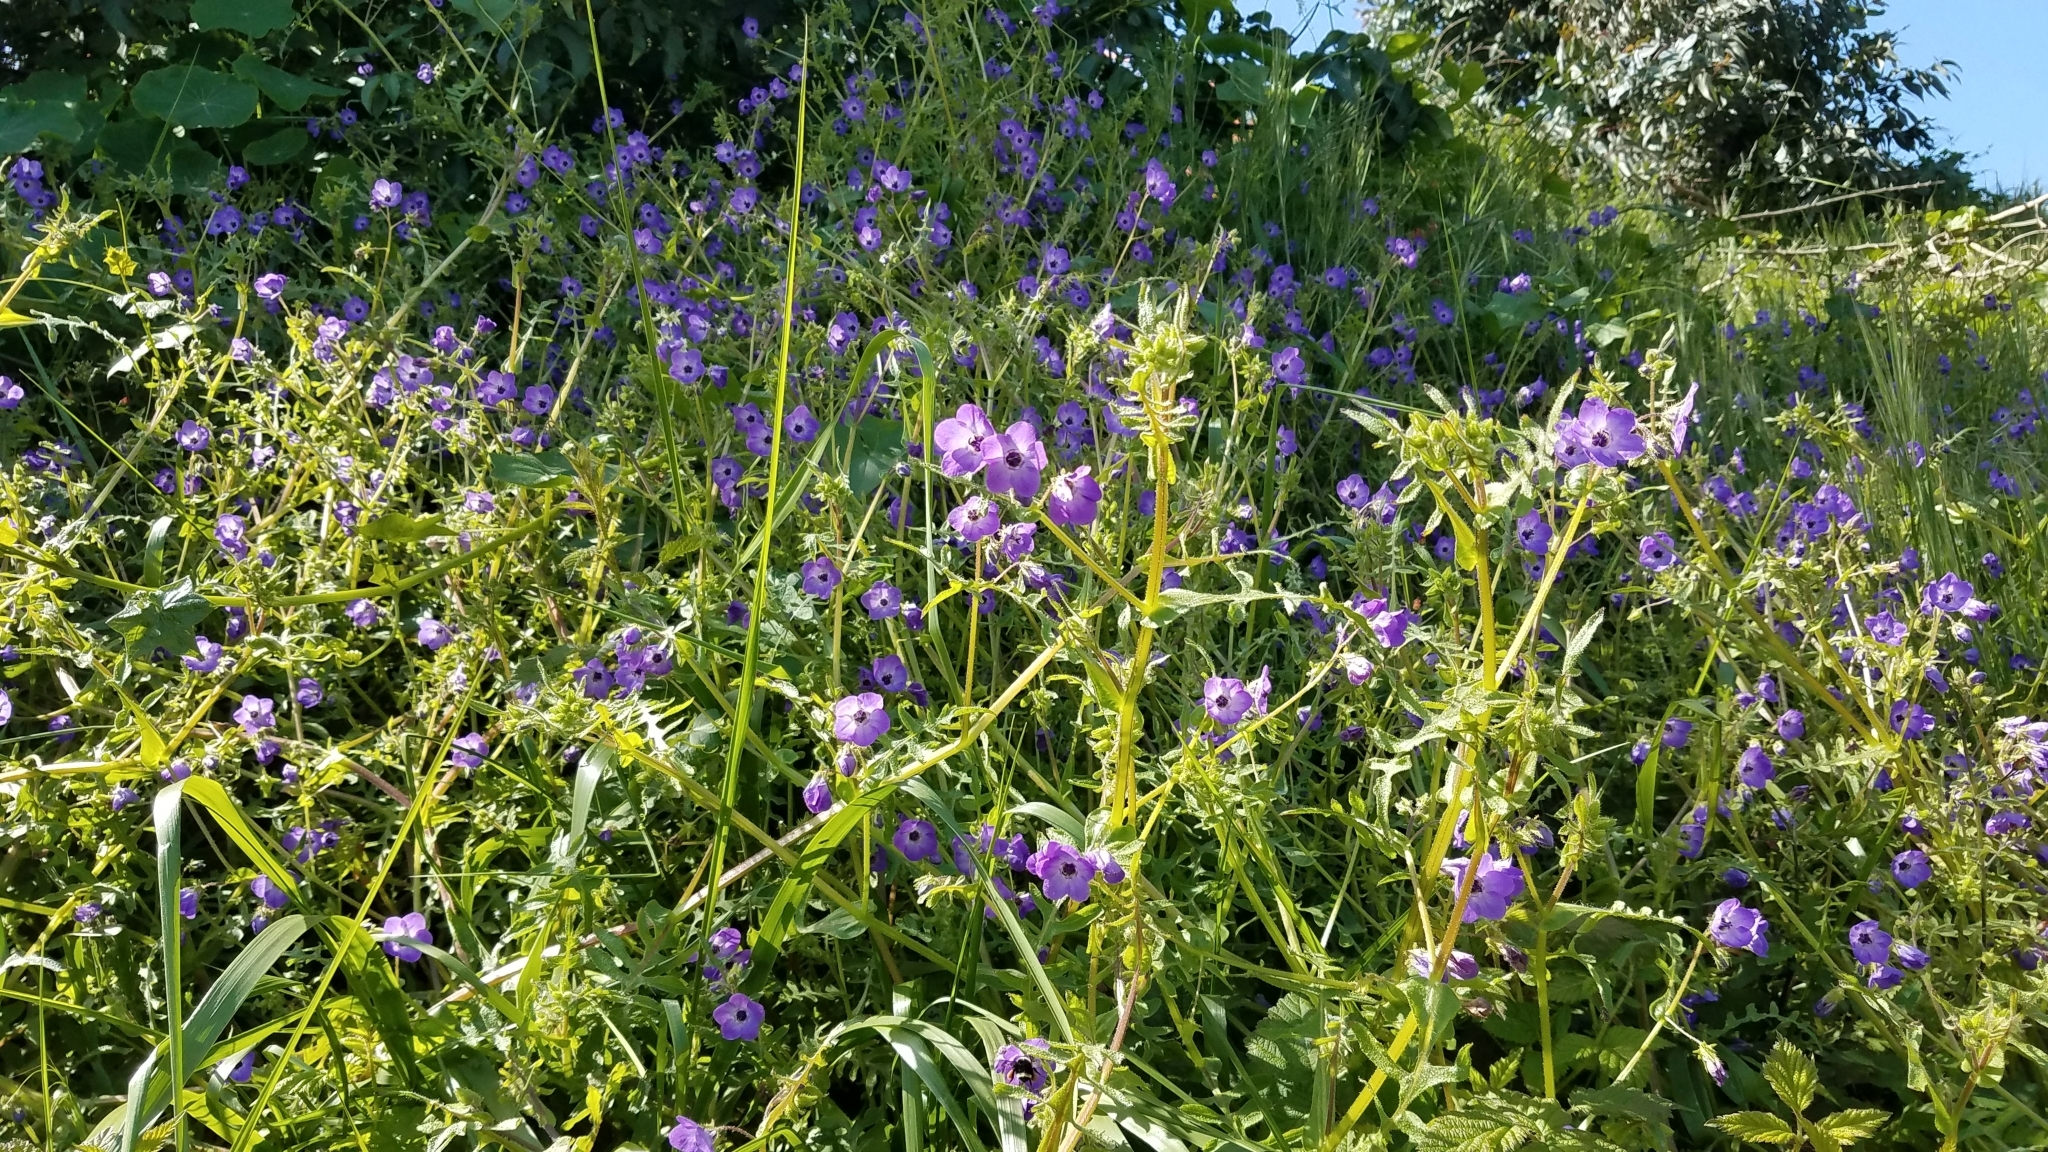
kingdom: Plantae
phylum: Tracheophyta
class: Magnoliopsida
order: Boraginales
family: Hydrophyllaceae
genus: Pholistoma
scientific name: Pholistoma auritum
